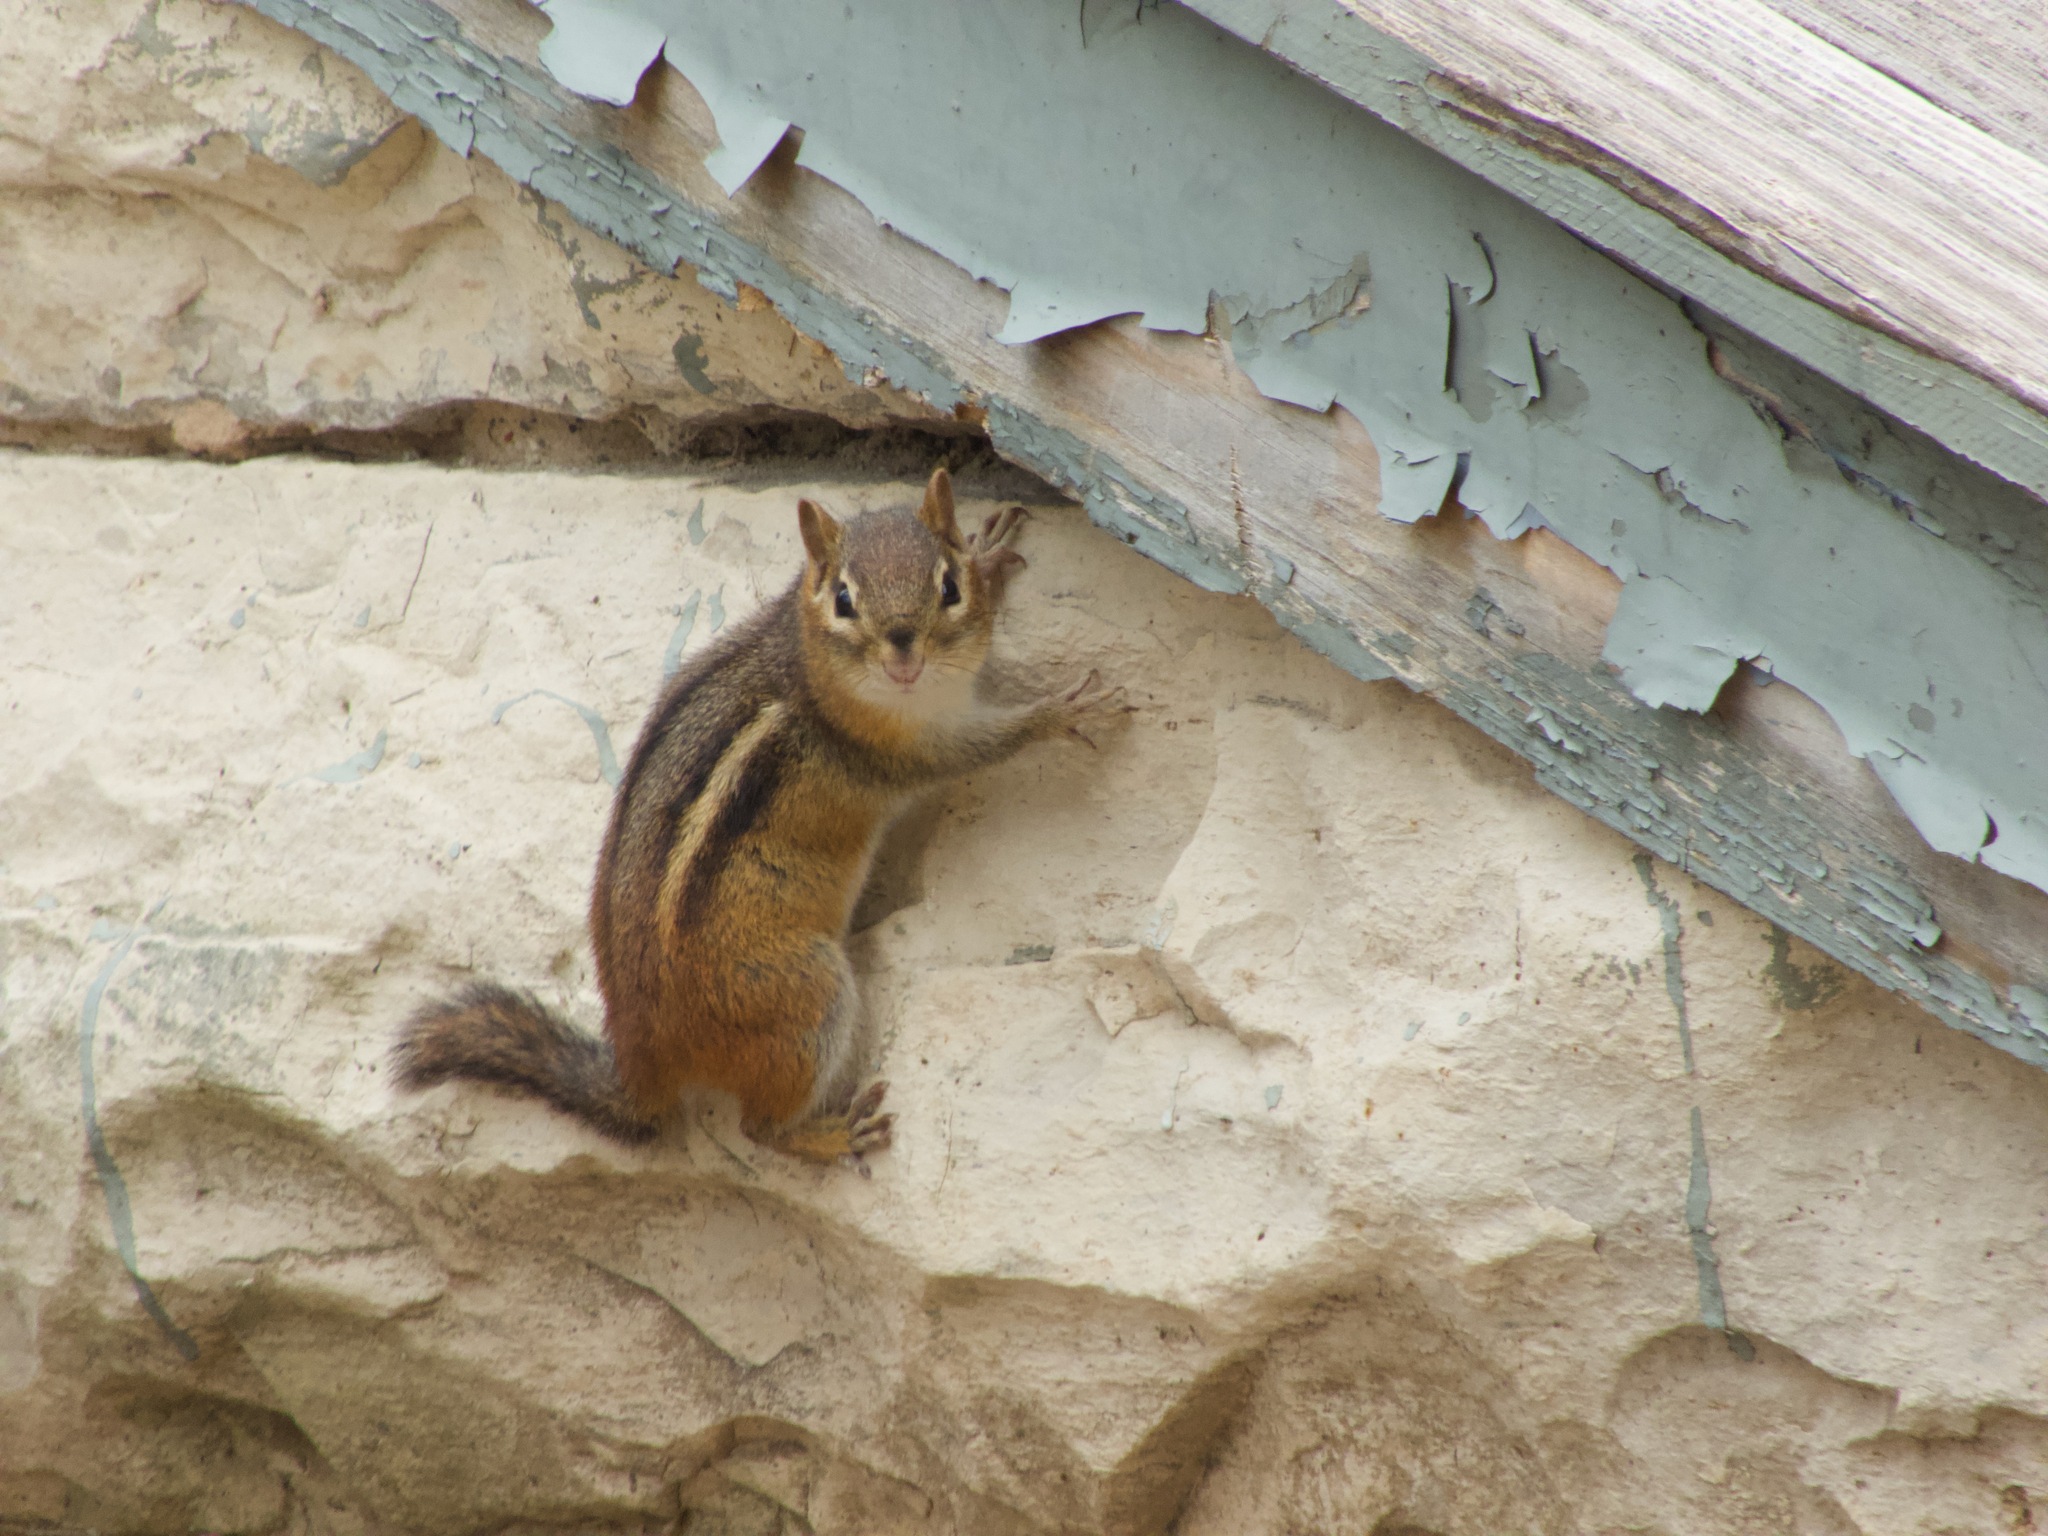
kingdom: Animalia
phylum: Chordata
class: Mammalia
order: Rodentia
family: Sciuridae
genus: Tamias
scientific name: Tamias striatus
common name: Eastern chipmunk
